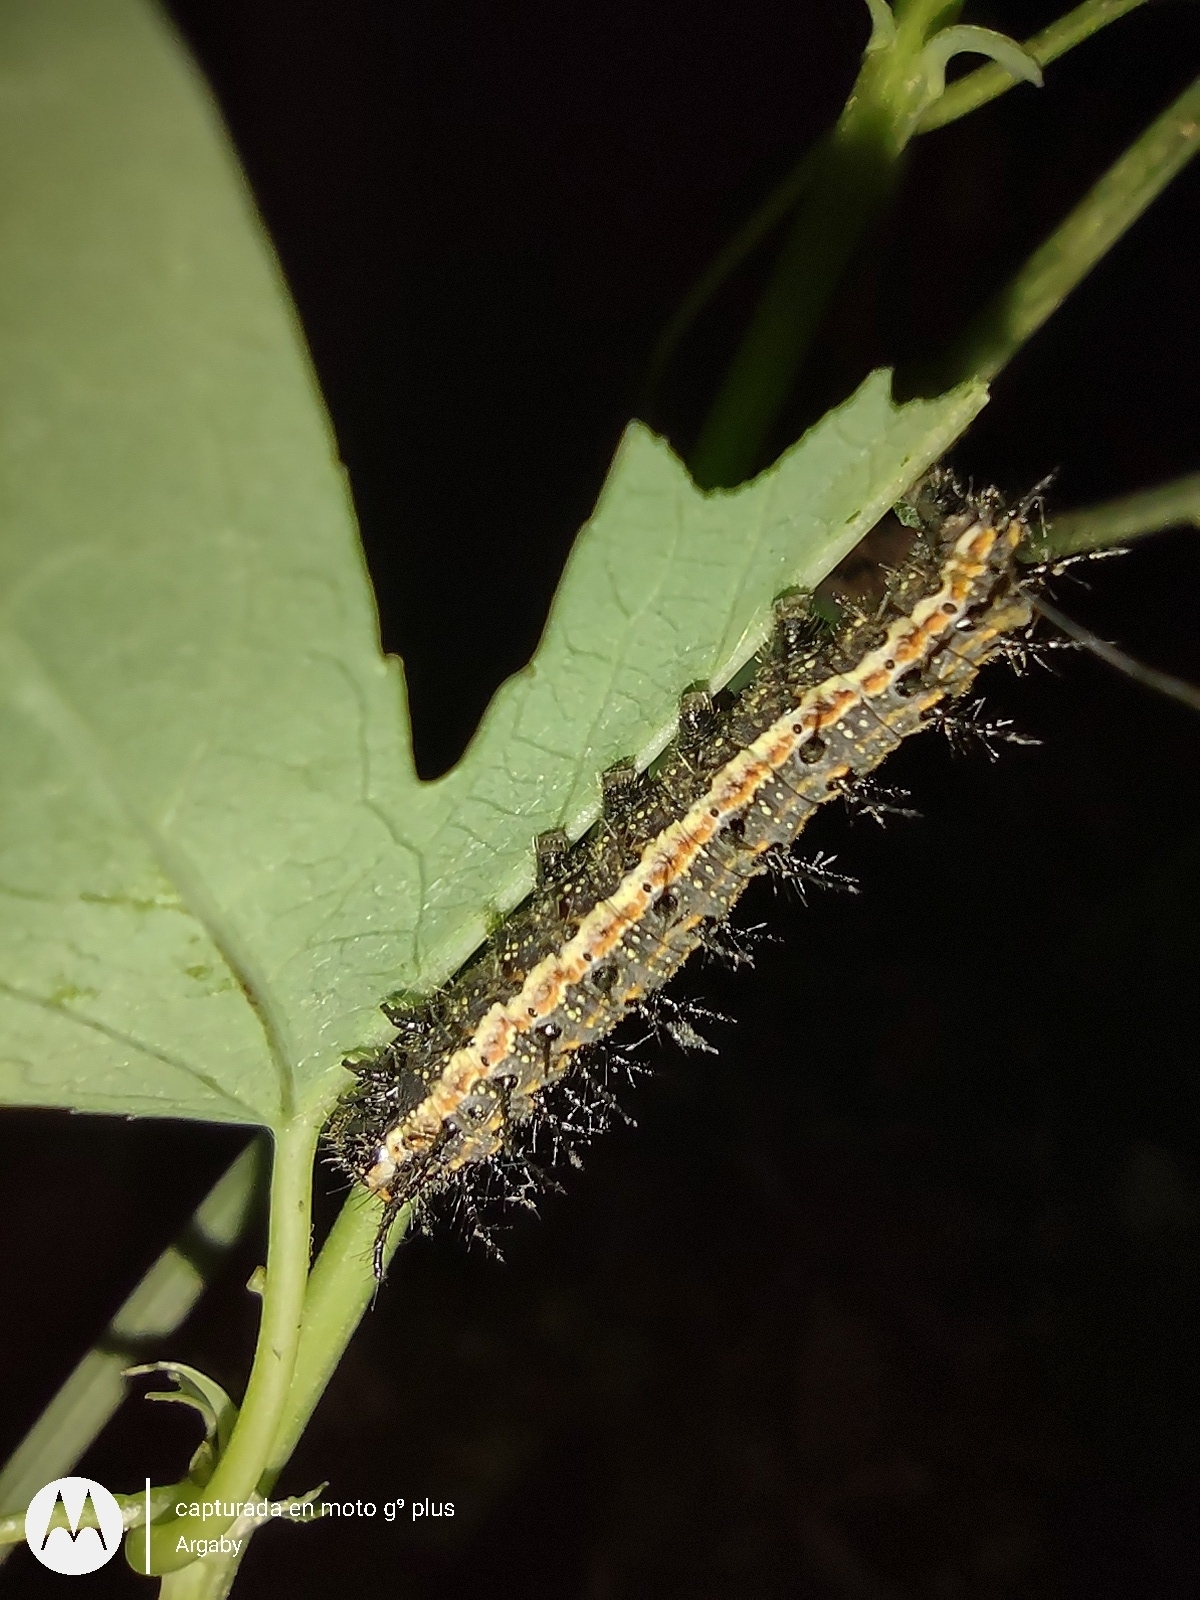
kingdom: Animalia
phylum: Arthropoda
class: Insecta
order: Lepidoptera
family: Nymphalidae
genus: Dione
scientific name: Dione vanillae
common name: Gulf fritillary
